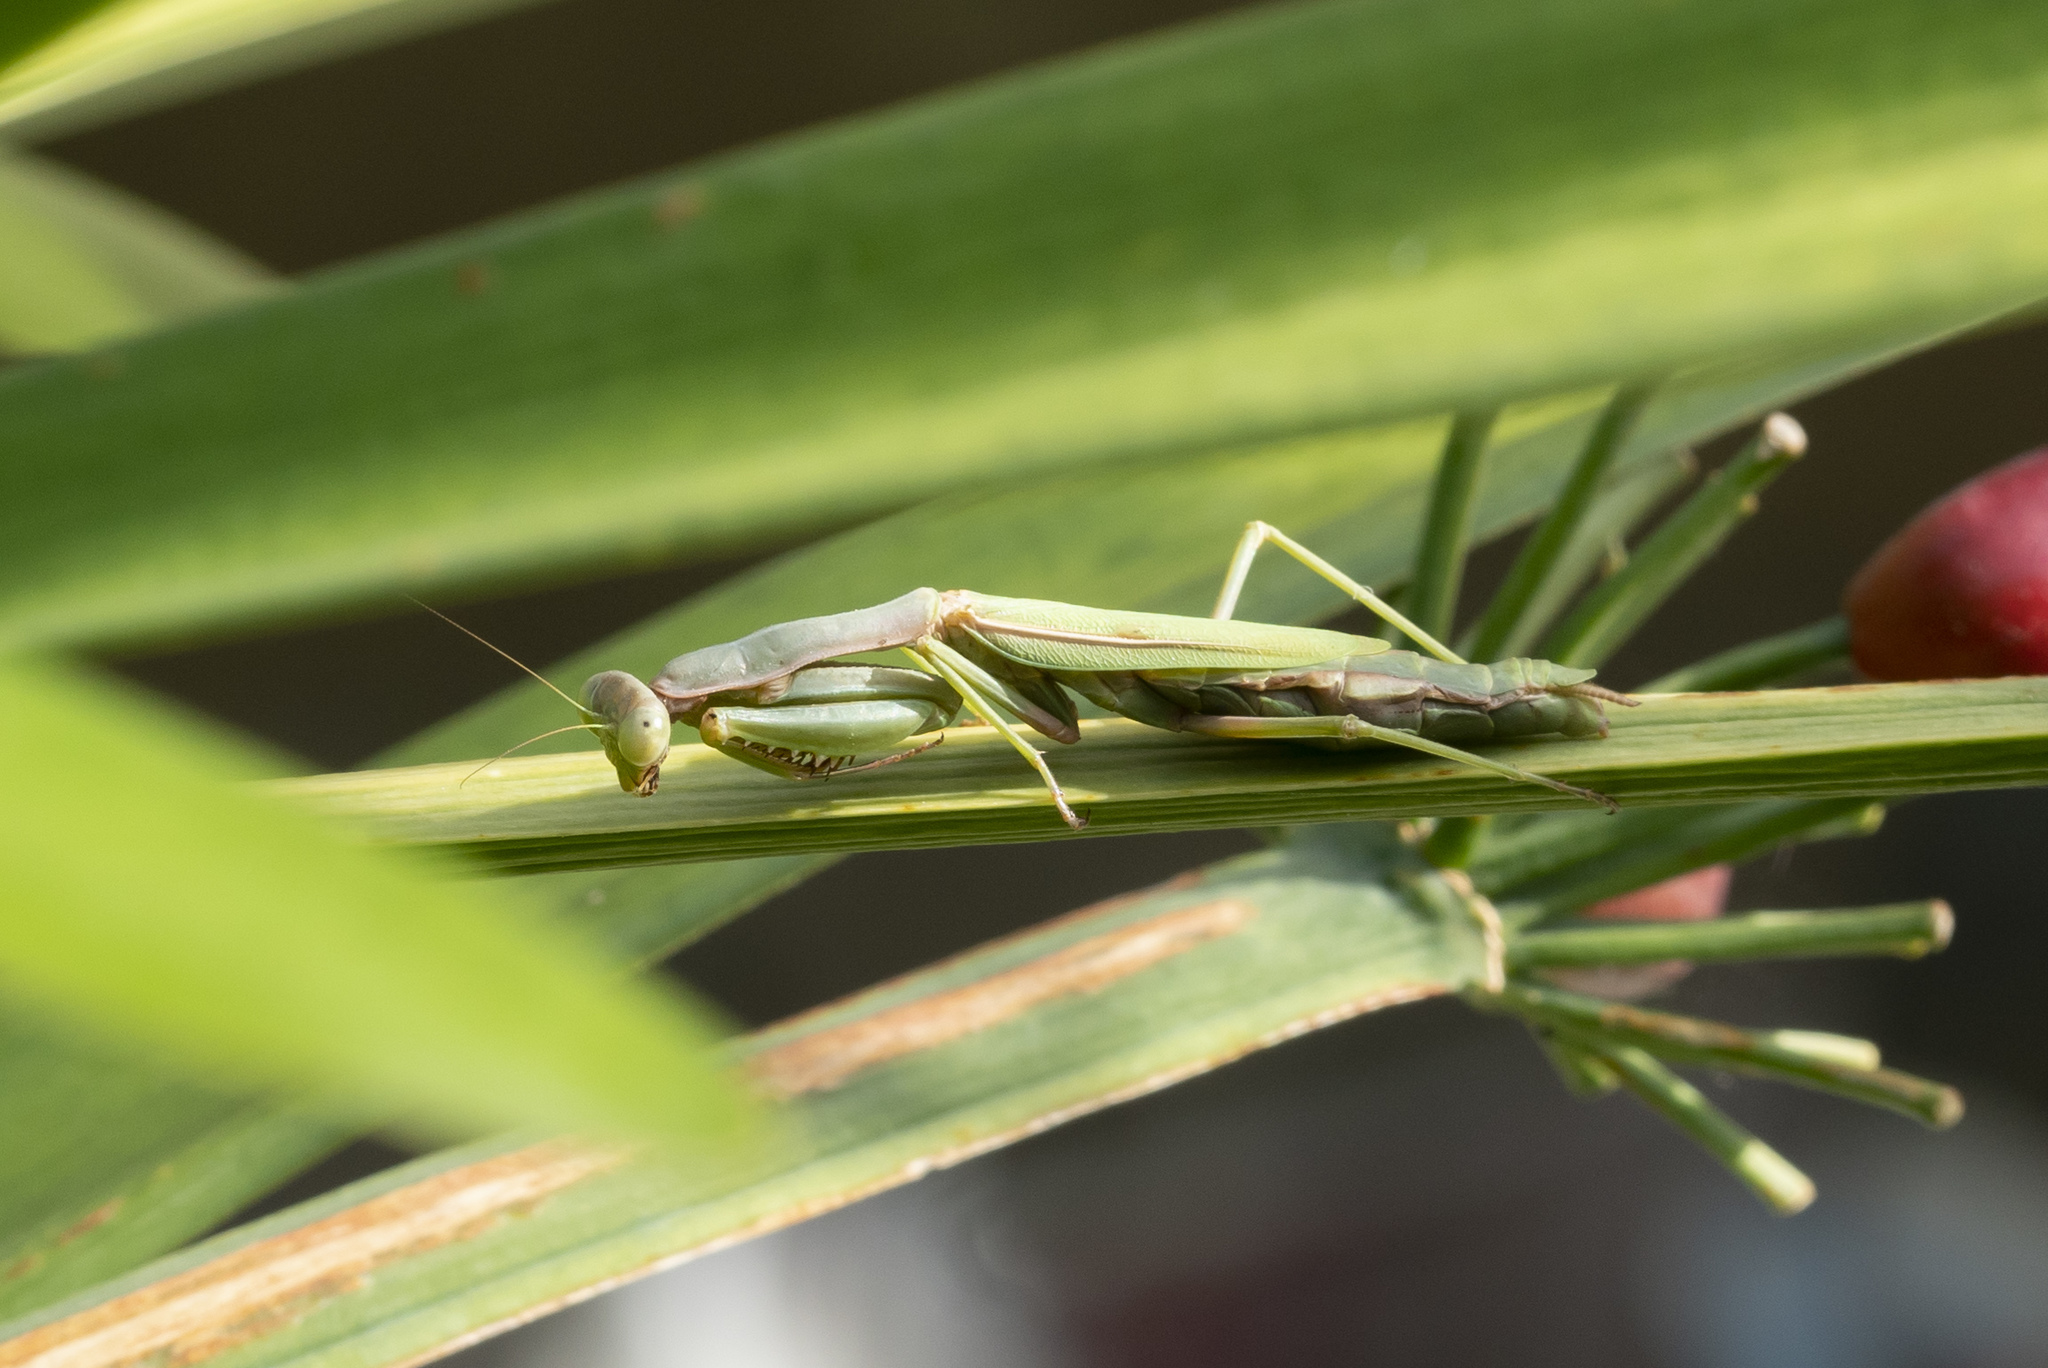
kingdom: Animalia
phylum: Arthropoda
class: Insecta
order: Mantodea
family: Eremiaphilidae
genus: Iris
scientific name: Iris oratoria
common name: Mediterranean mantis
